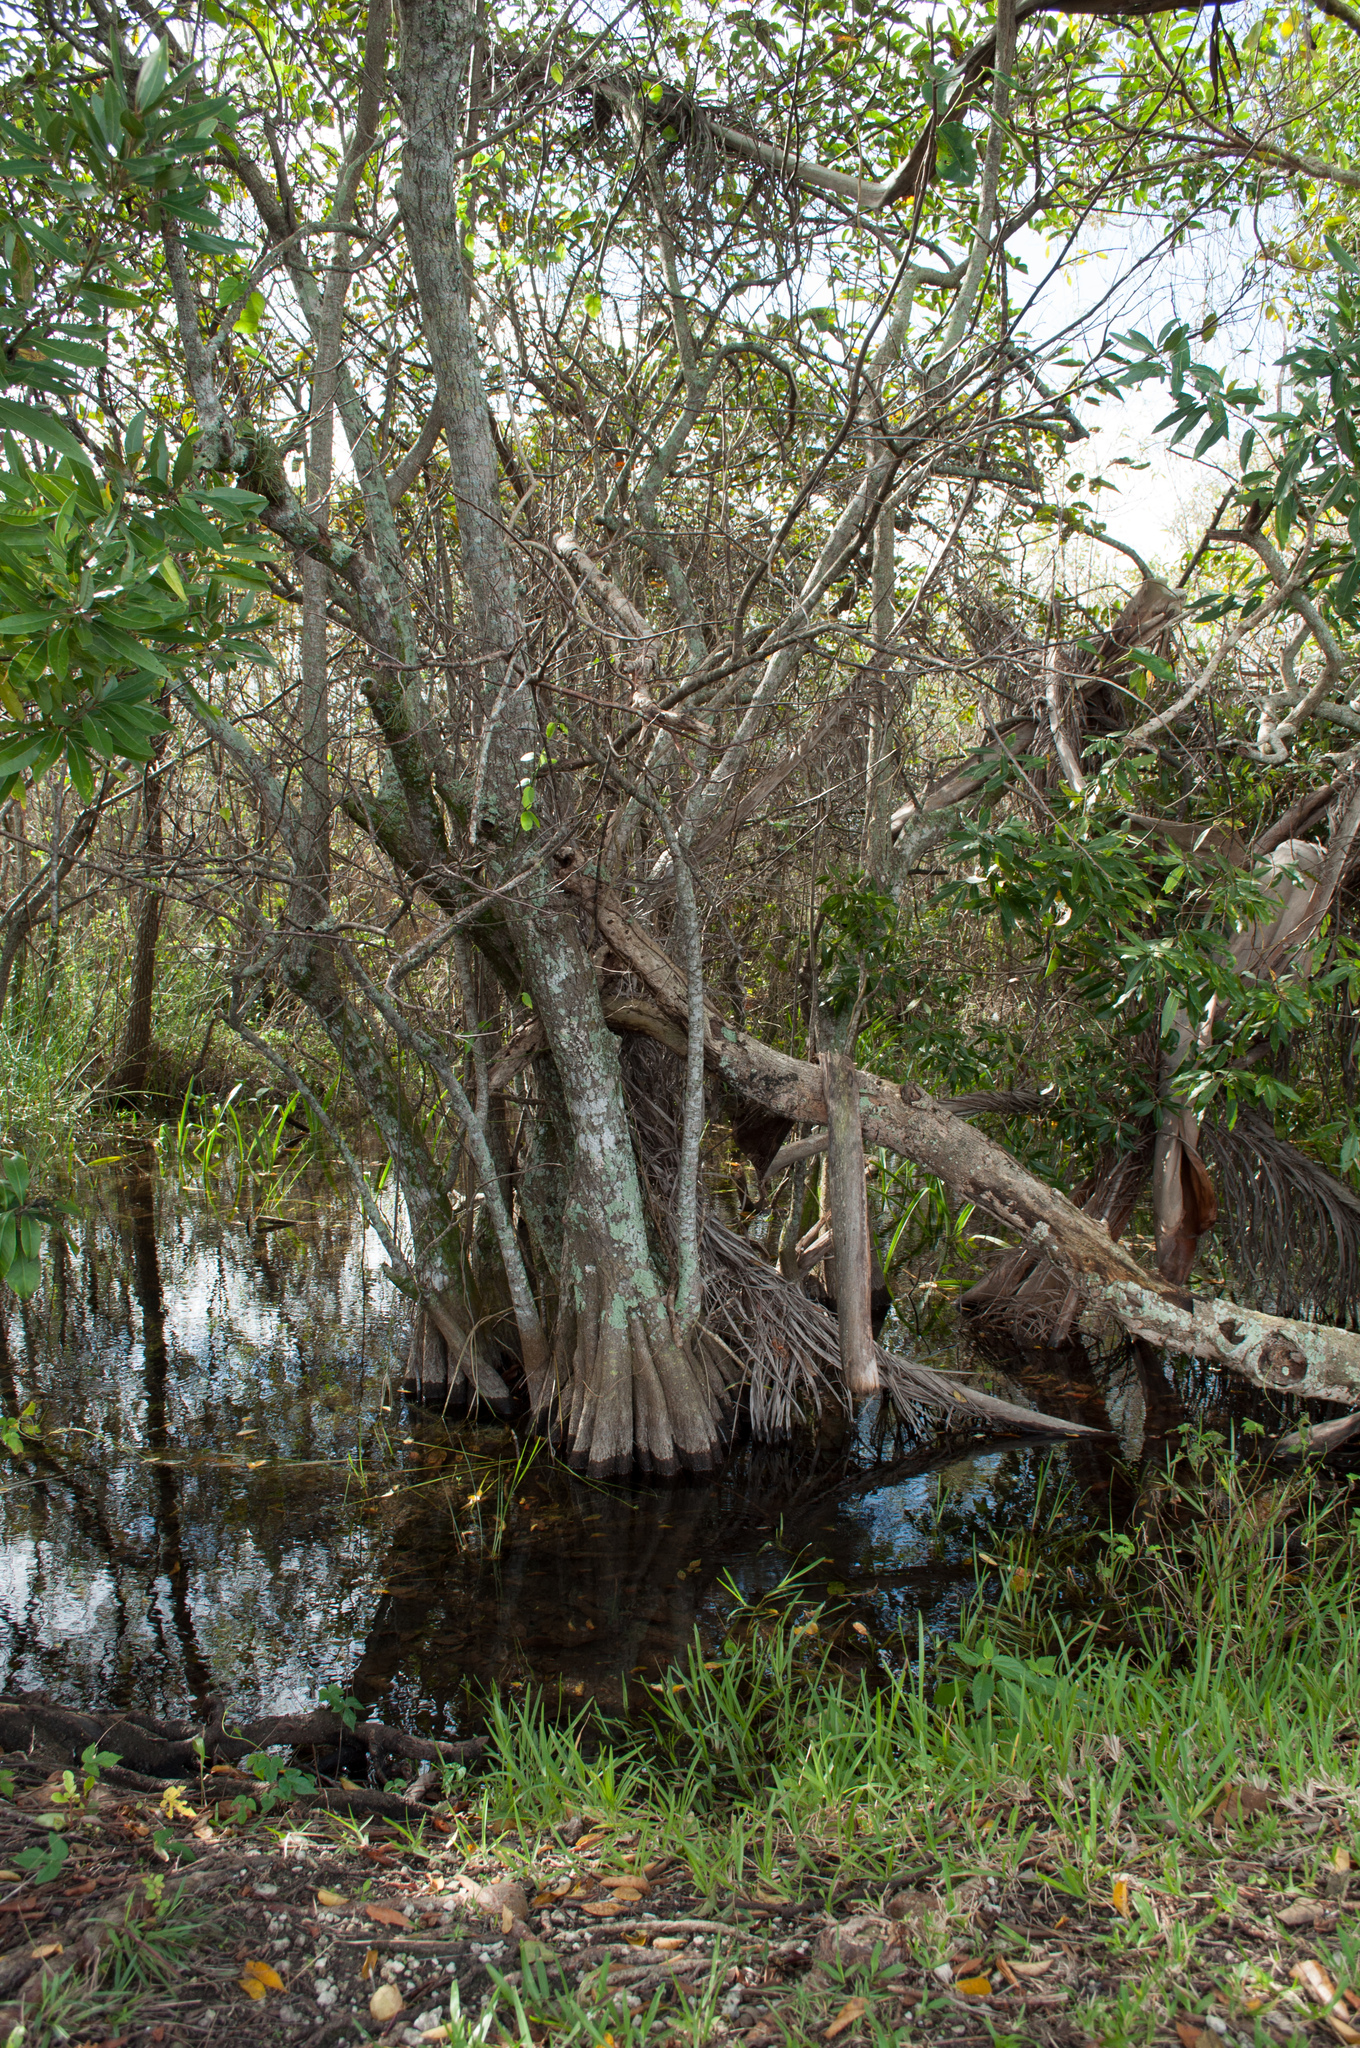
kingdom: Plantae
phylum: Tracheophyta
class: Magnoliopsida
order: Magnoliales
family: Annonaceae
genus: Annona
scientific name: Annona glabra
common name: Monkey apple
